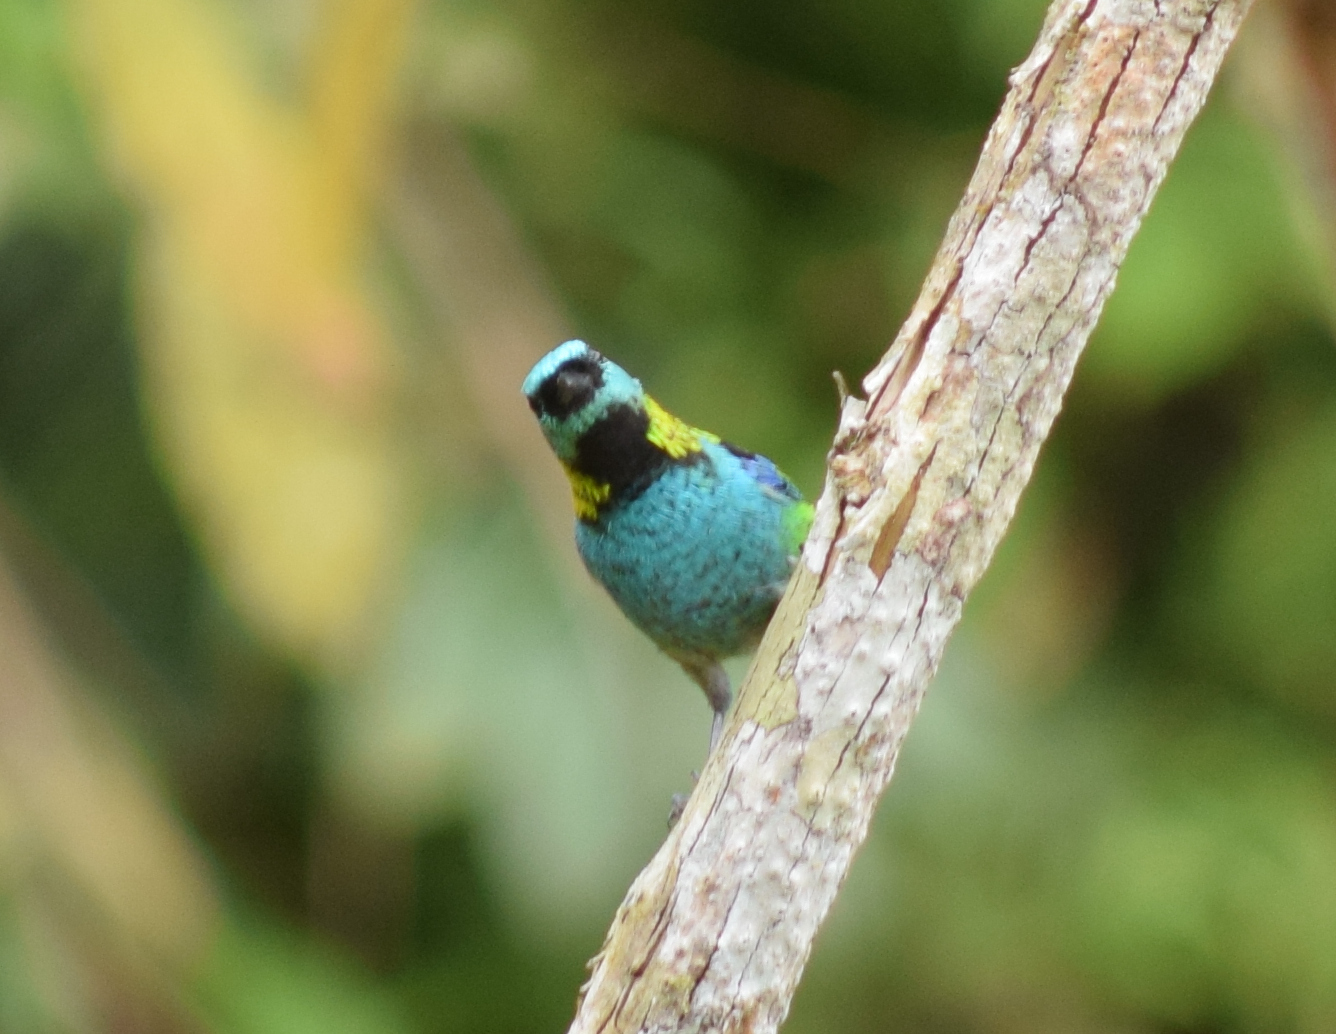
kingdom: Animalia
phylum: Chordata
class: Aves
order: Passeriformes
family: Thraupidae
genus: Tangara
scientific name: Tangara seledon
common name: Green-headed tanager
